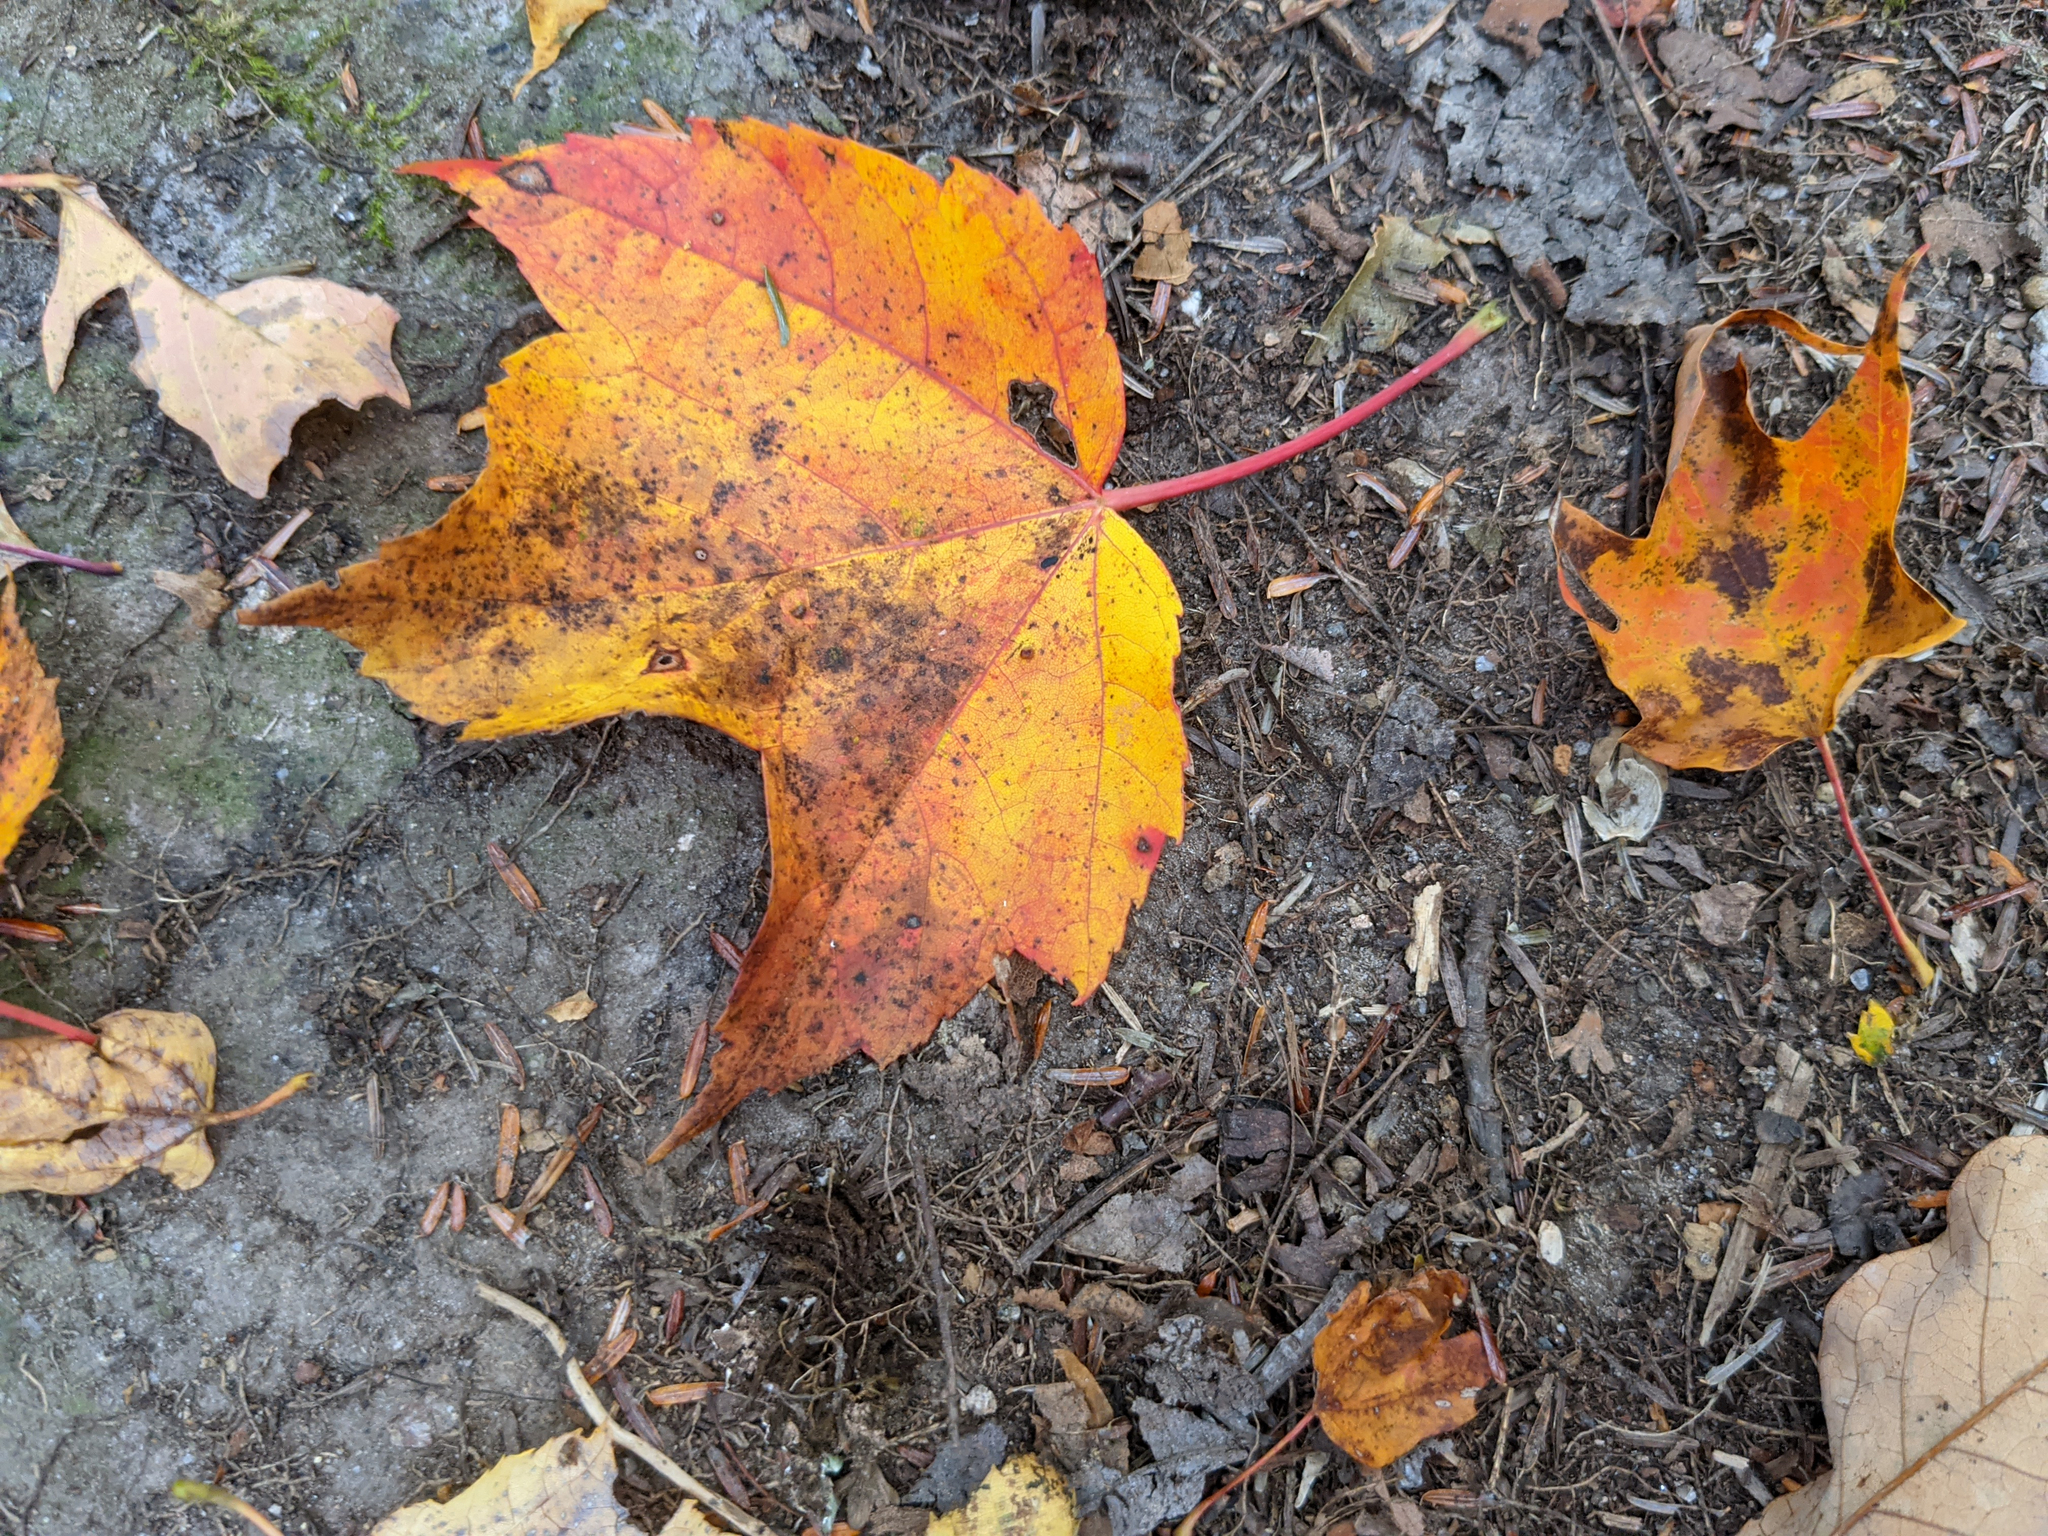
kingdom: Plantae
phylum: Tracheophyta
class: Magnoliopsida
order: Sapindales
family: Sapindaceae
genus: Acer
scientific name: Acer rubrum
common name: Red maple
